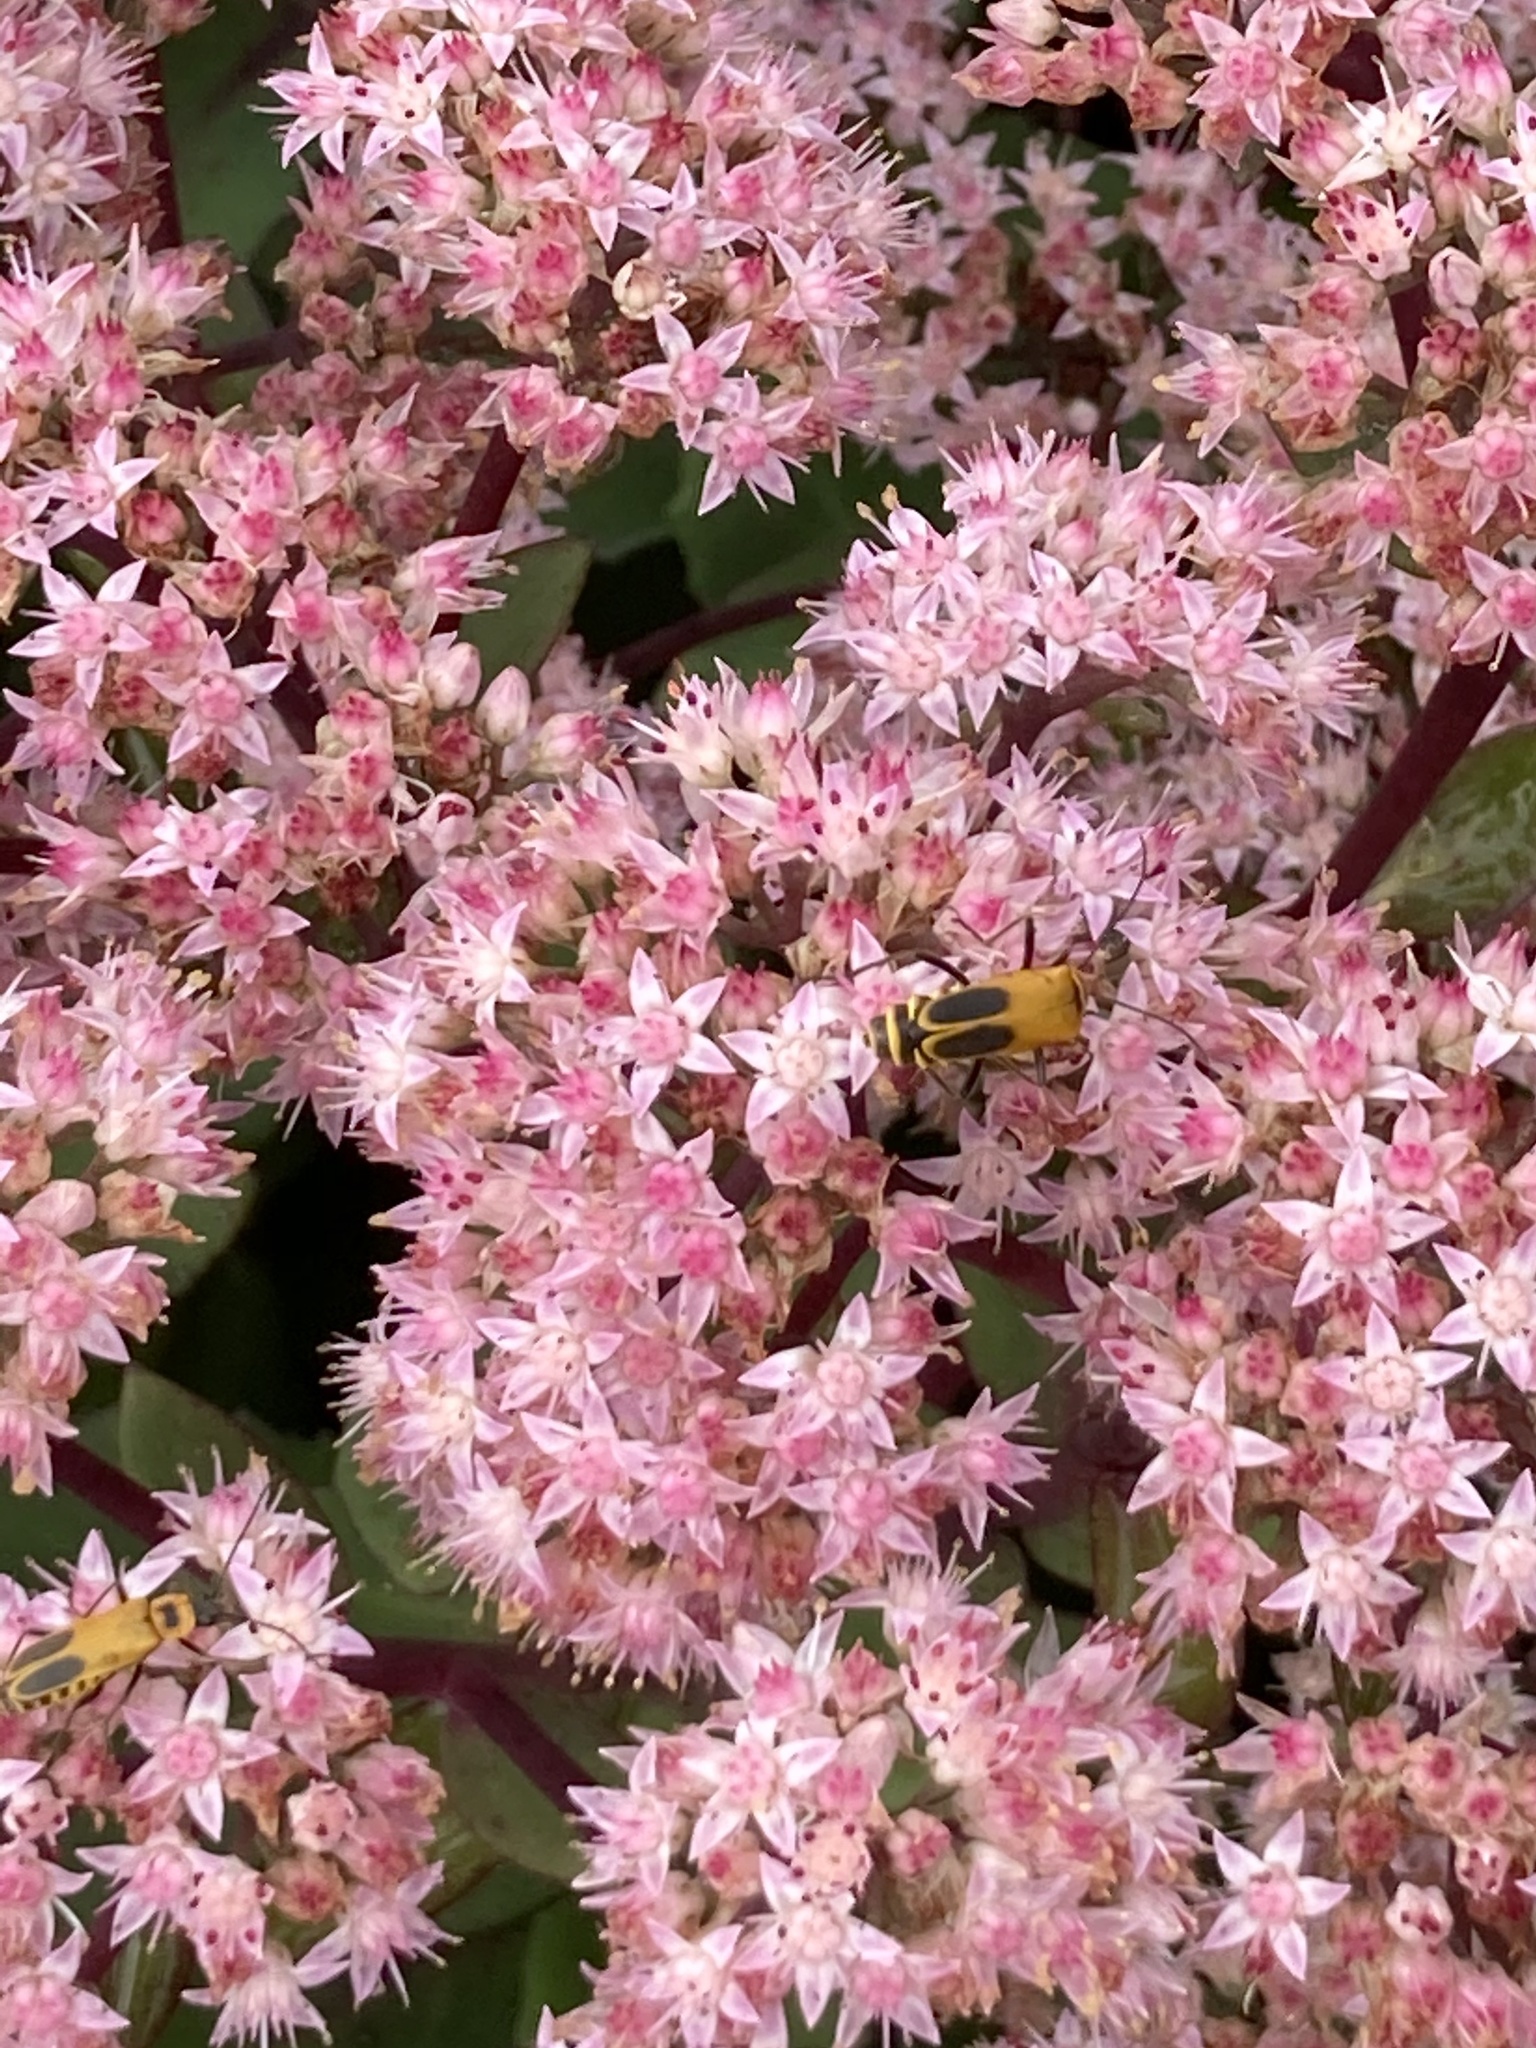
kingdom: Animalia
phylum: Arthropoda
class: Insecta
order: Coleoptera
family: Cantharidae
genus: Chauliognathus
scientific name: Chauliognathus pensylvanicus
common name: Goldenrod soldier beetle
